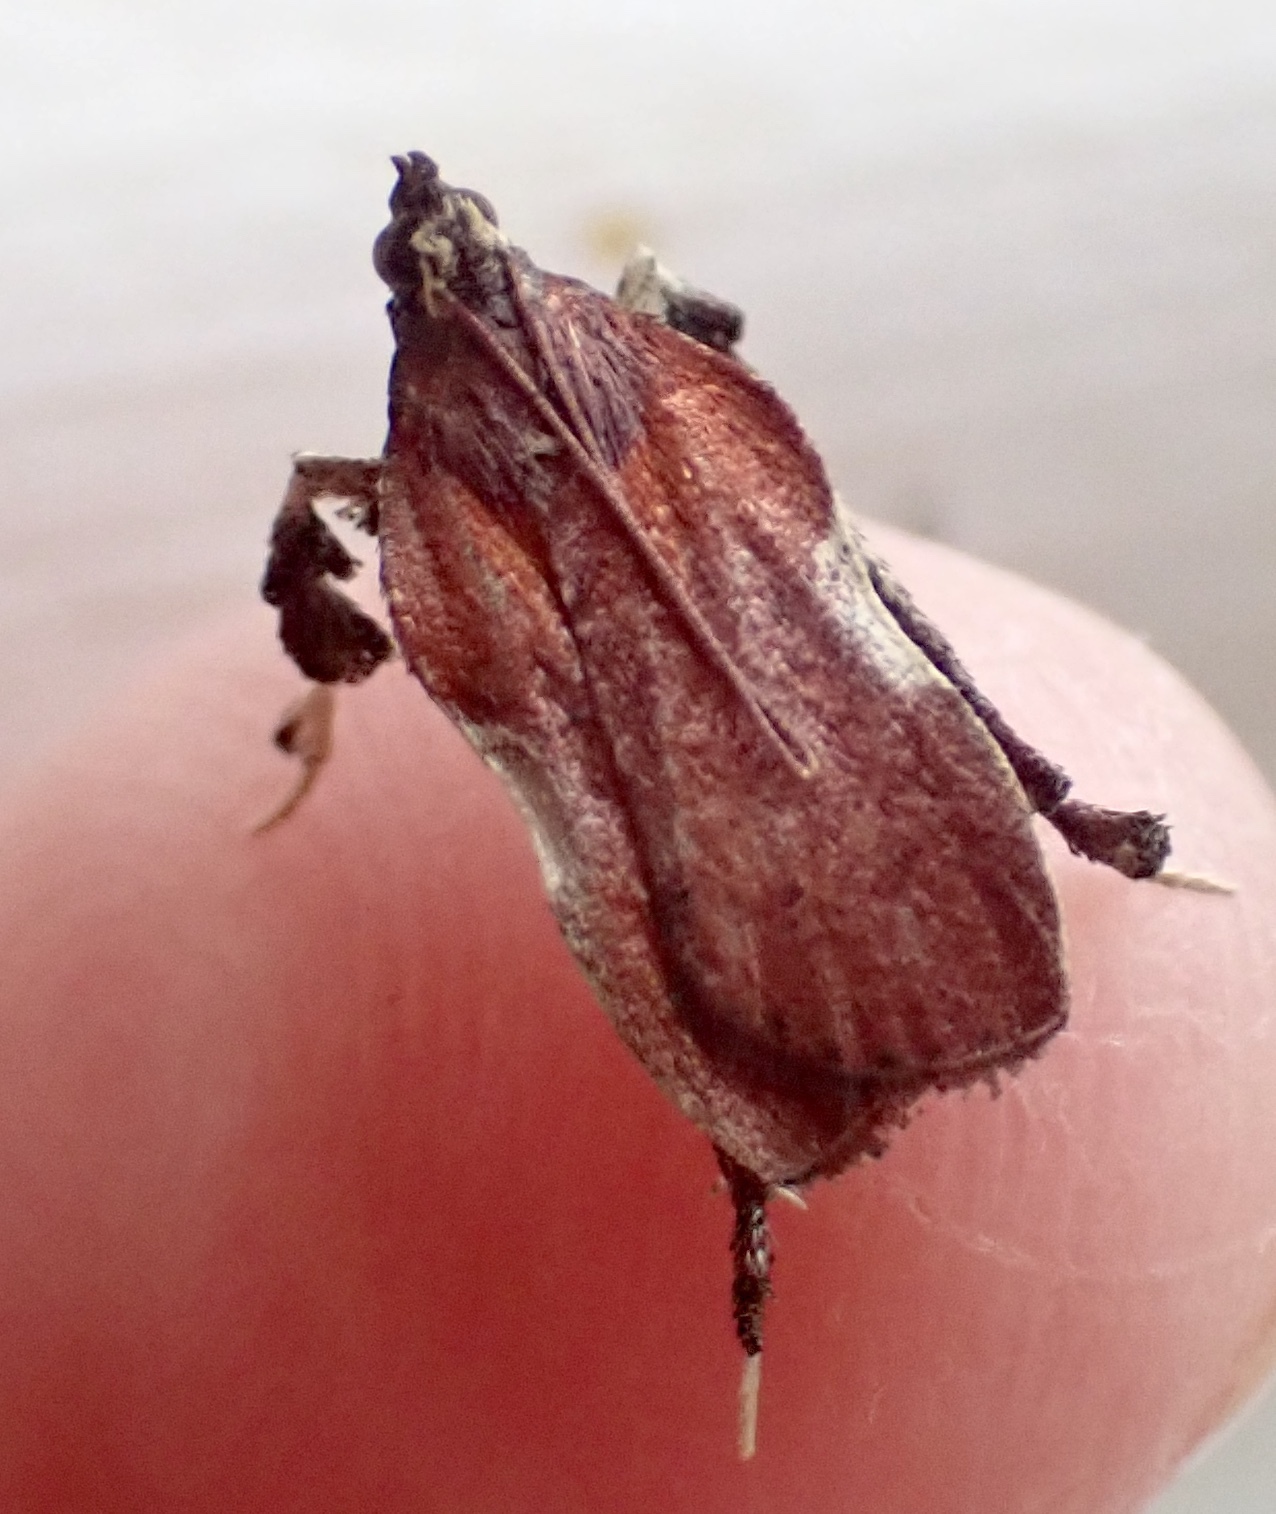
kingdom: Animalia
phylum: Arthropoda
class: Insecta
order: Lepidoptera
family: Pyralidae
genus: Galasa
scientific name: Galasa nigrinodis
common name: Boxwood leaftier moth
